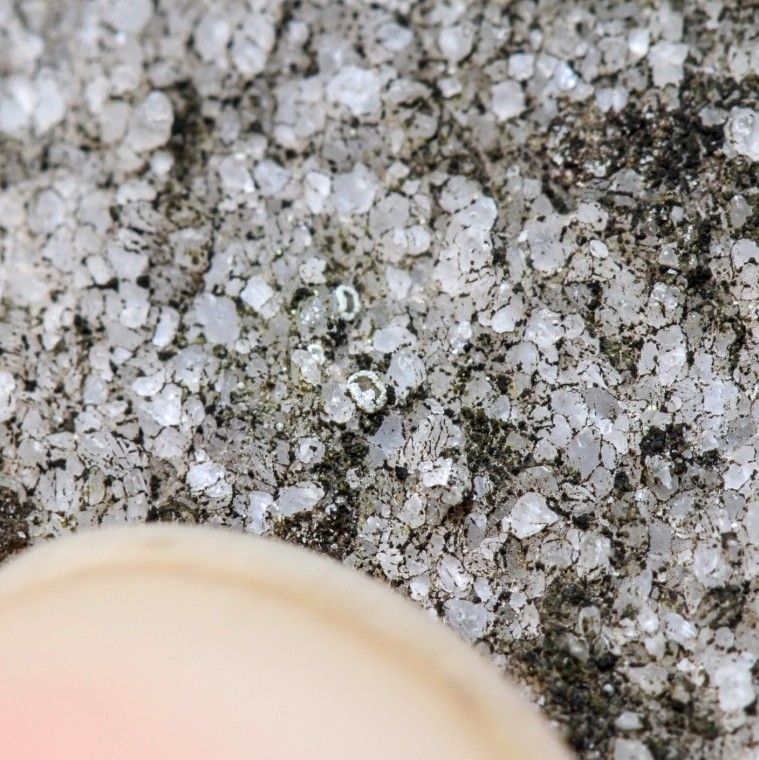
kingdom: Fungi
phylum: Ascomycota
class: Lecanoromycetes
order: Lecanorales
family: Lecanoraceae
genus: Polyozosia
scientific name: Polyozosia dispersa
